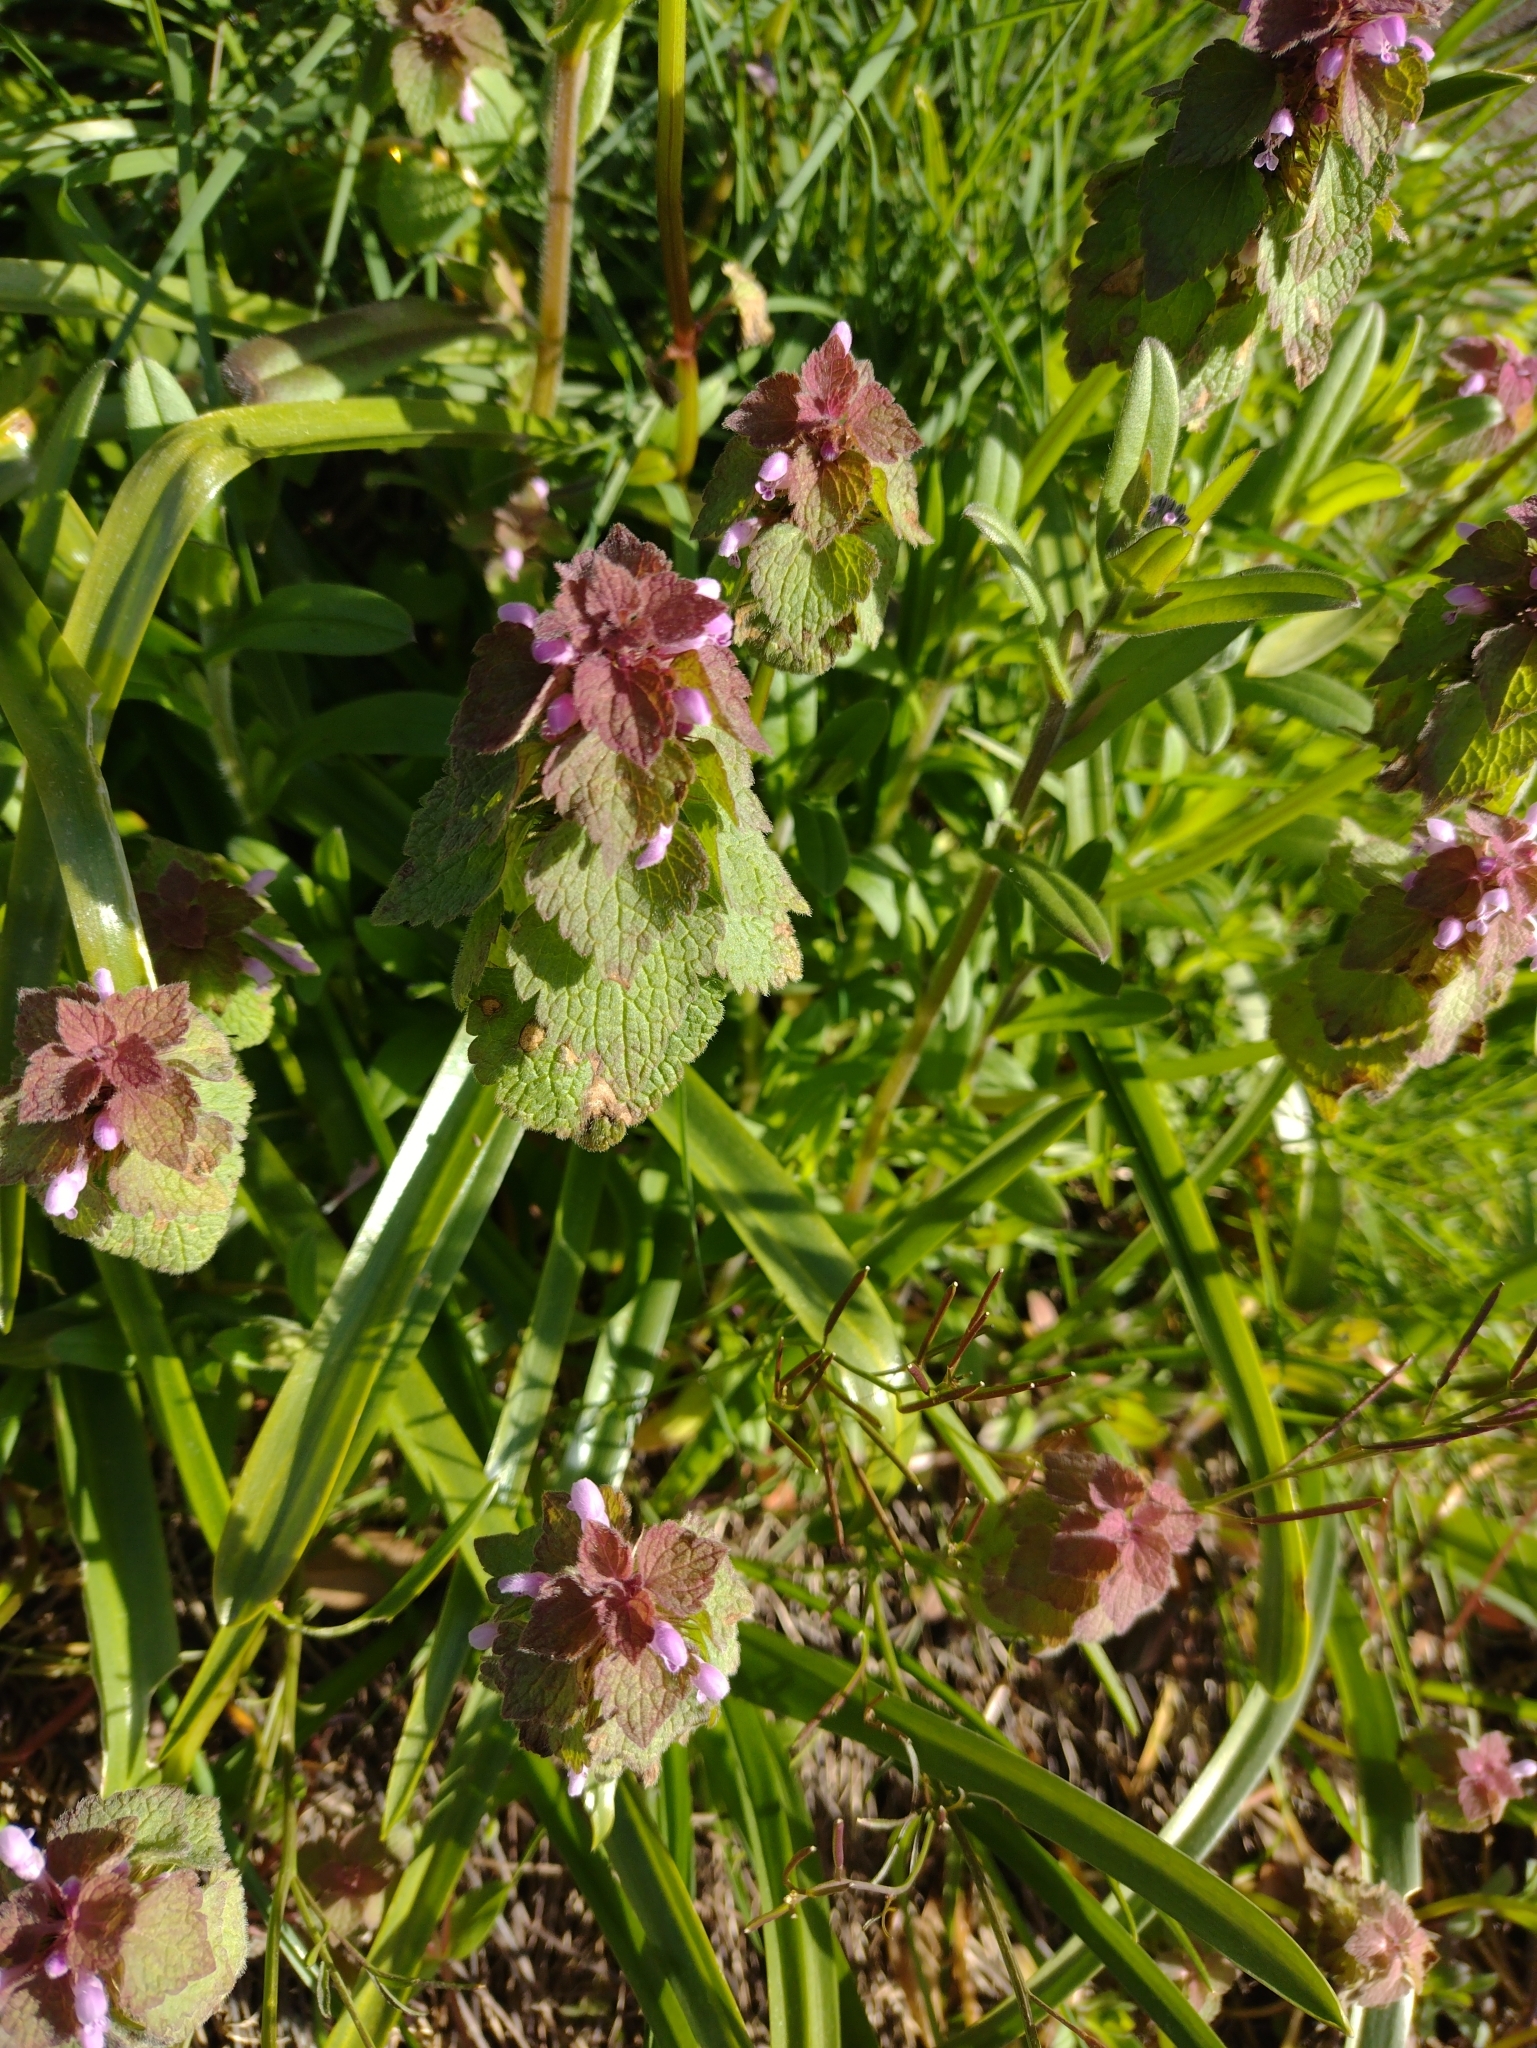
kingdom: Plantae
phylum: Tracheophyta
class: Magnoliopsida
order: Lamiales
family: Lamiaceae
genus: Lamium
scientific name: Lamium purpureum
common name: Red dead-nettle
